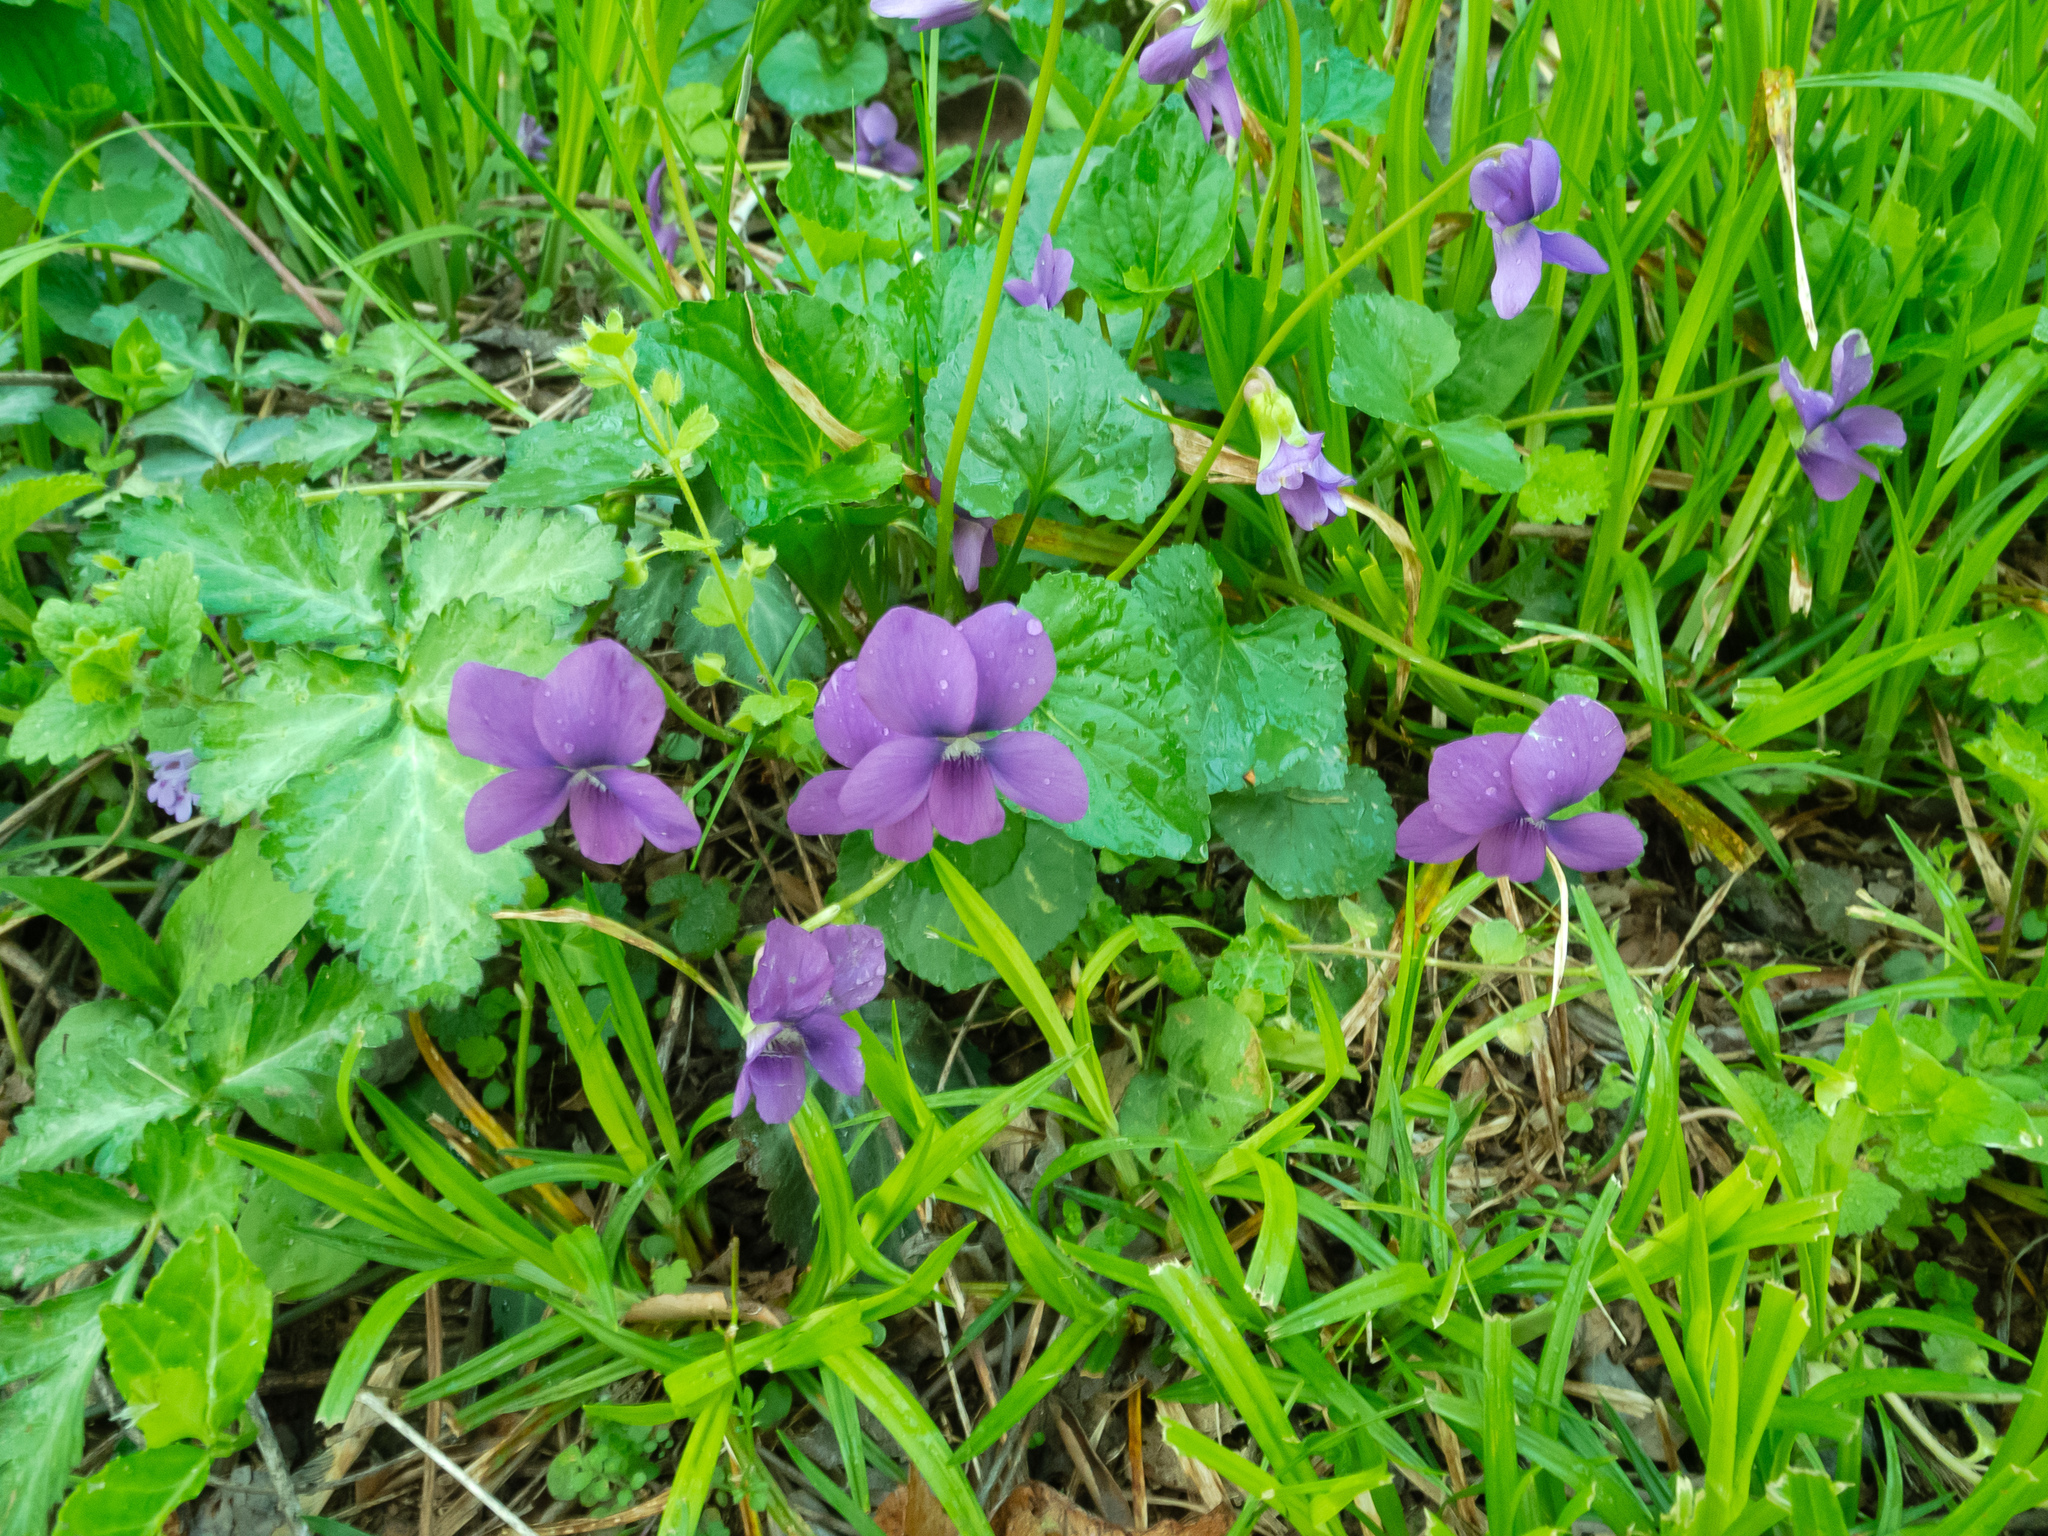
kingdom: Plantae
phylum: Tracheophyta
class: Magnoliopsida
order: Malpighiales
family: Violaceae
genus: Viola
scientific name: Viola sororia
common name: Dooryard violet
